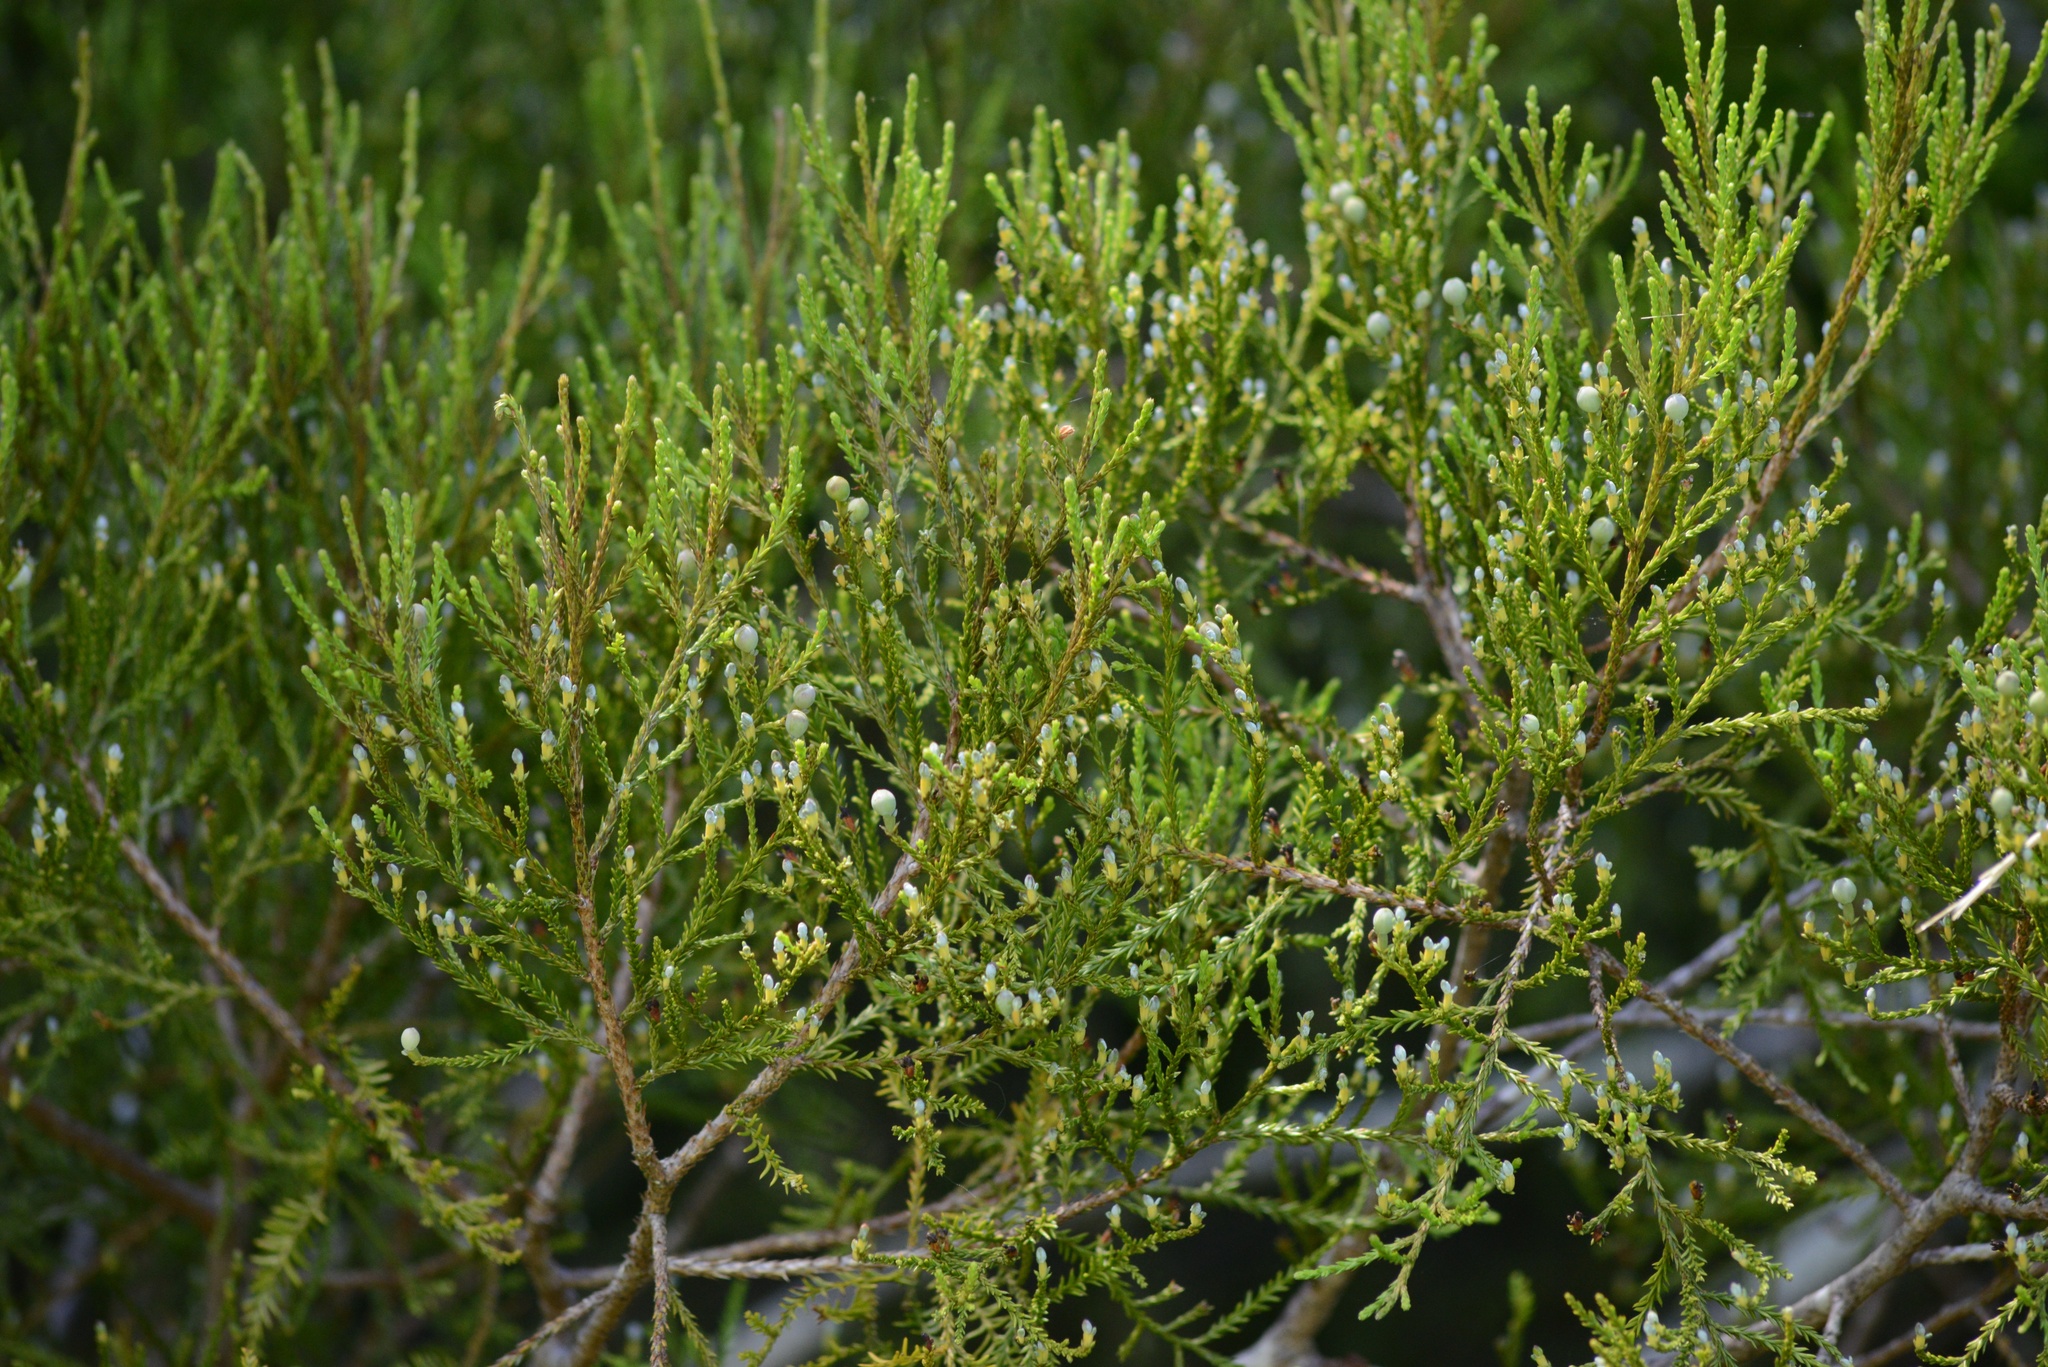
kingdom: Plantae
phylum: Tracheophyta
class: Pinopsida
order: Pinales
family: Podocarpaceae
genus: Dacrycarpus
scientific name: Dacrycarpus dacrydioides
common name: White pine
